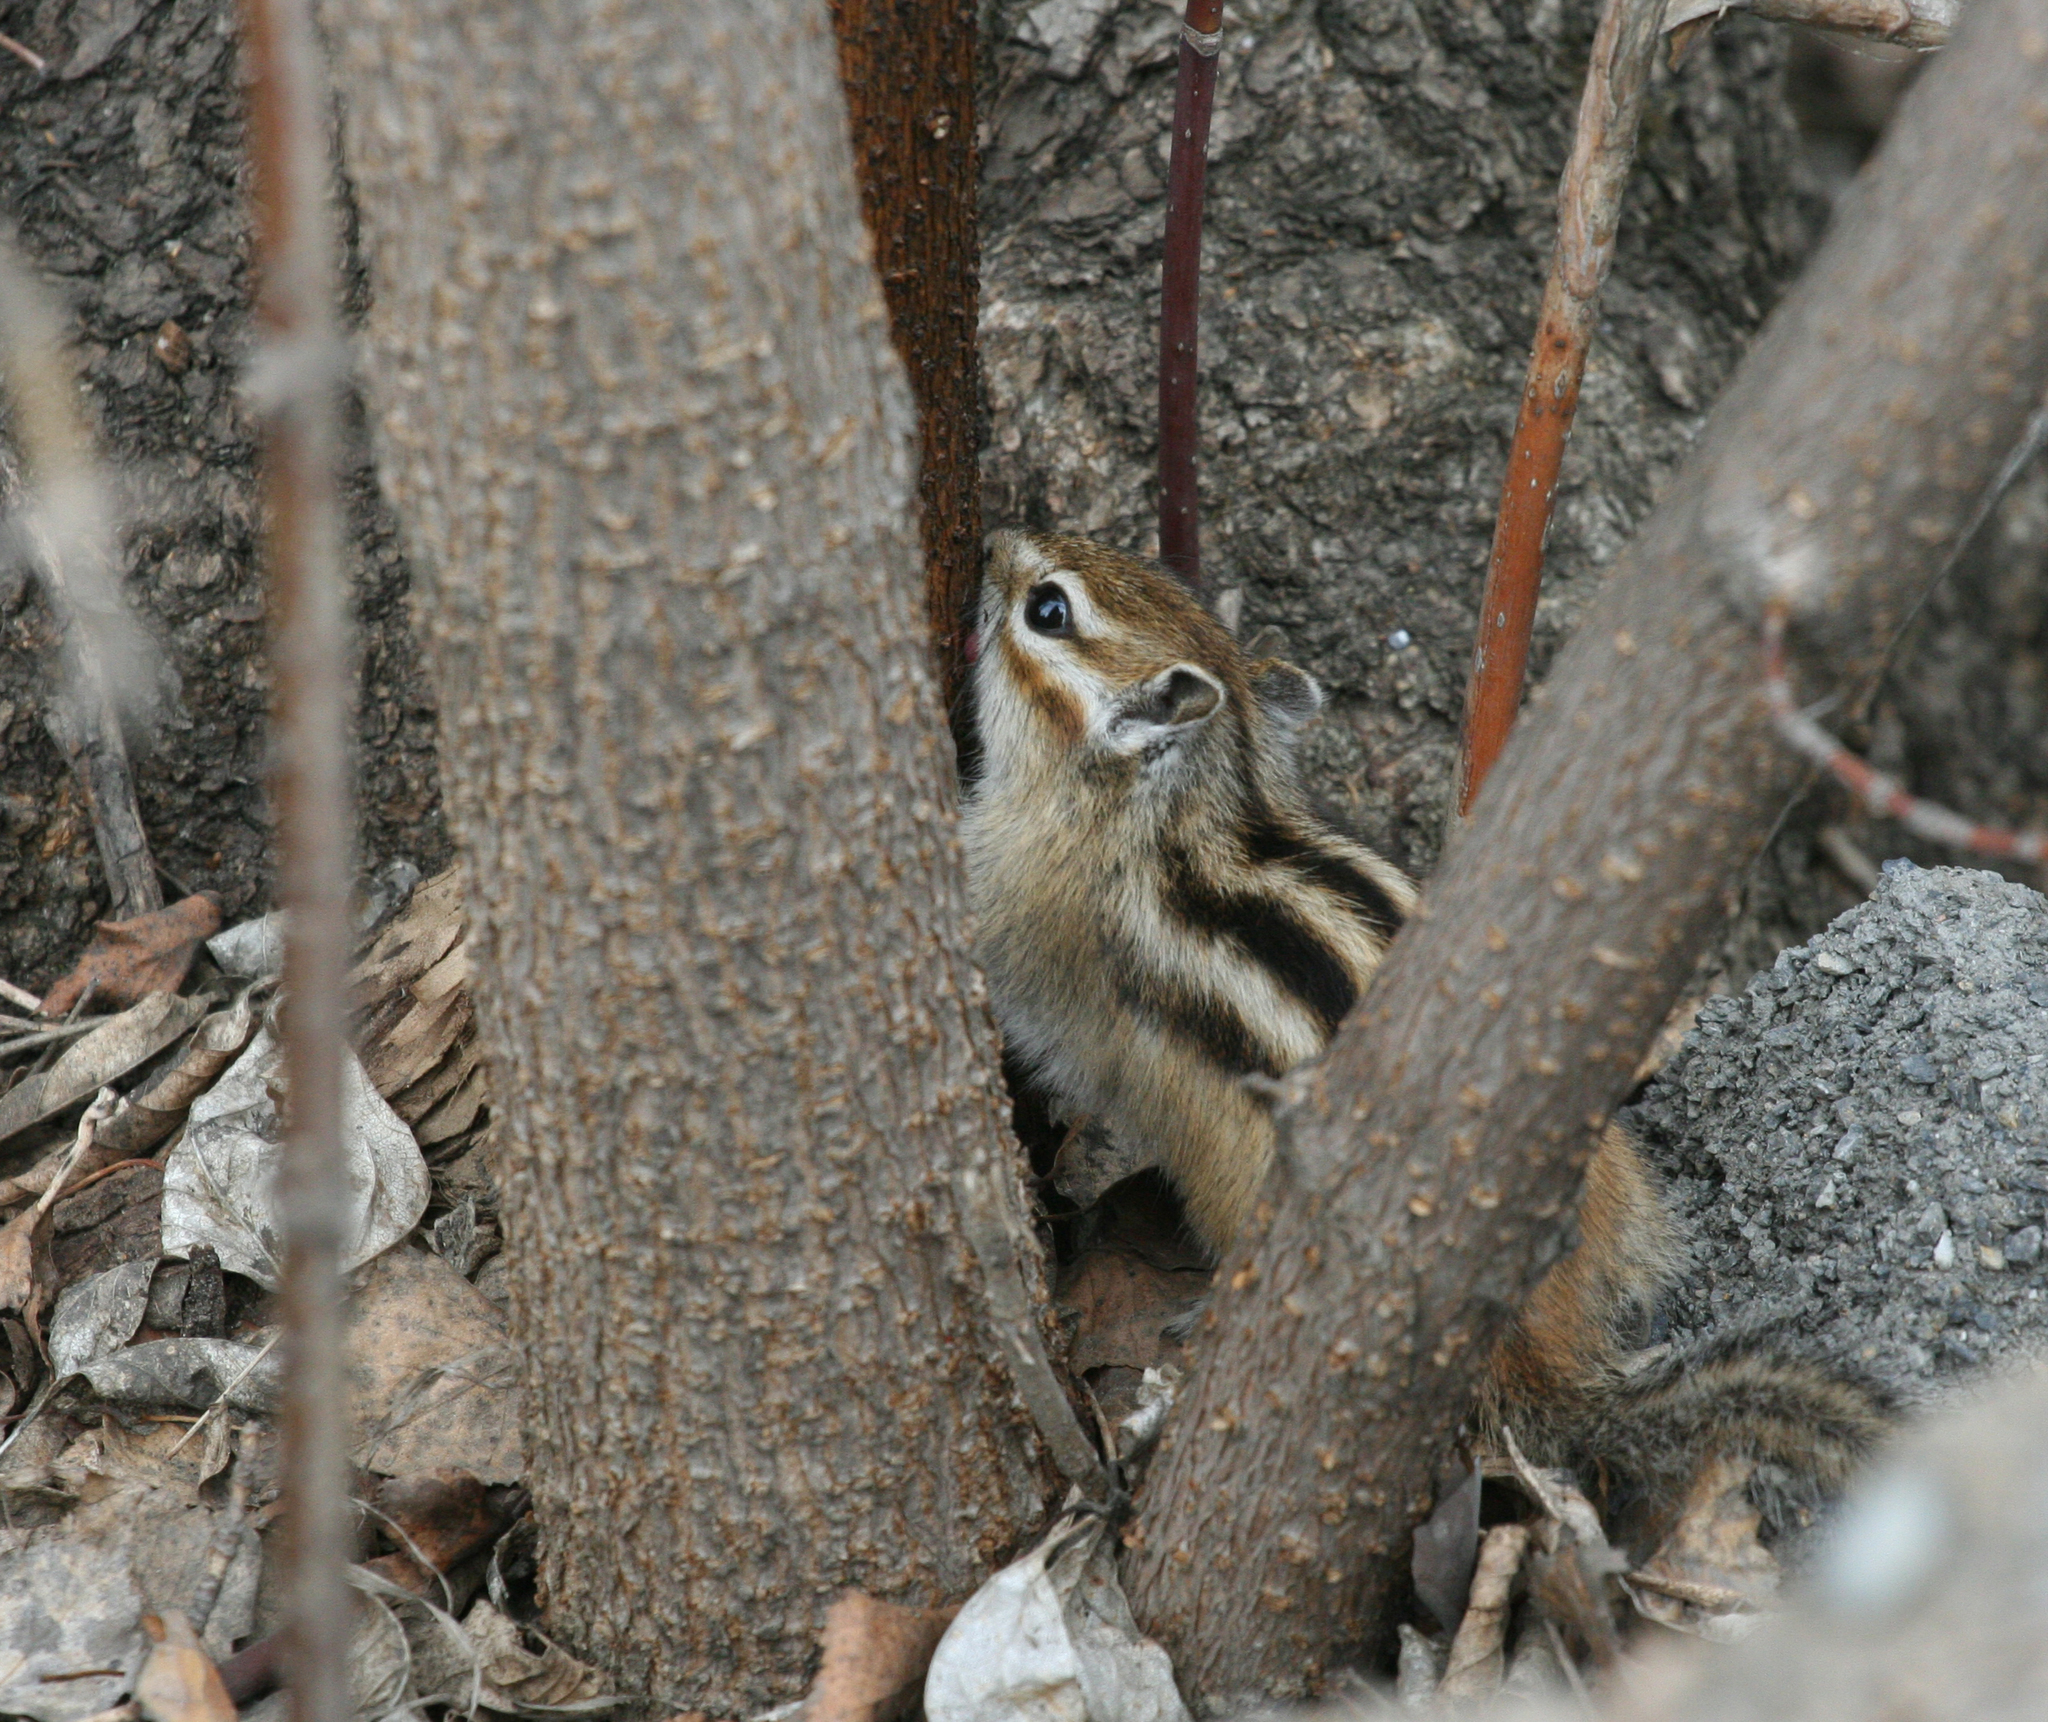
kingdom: Animalia
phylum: Chordata
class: Mammalia
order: Rodentia
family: Sciuridae
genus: Tamias
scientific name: Tamias sibiricus
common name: Siberian chipmunk
